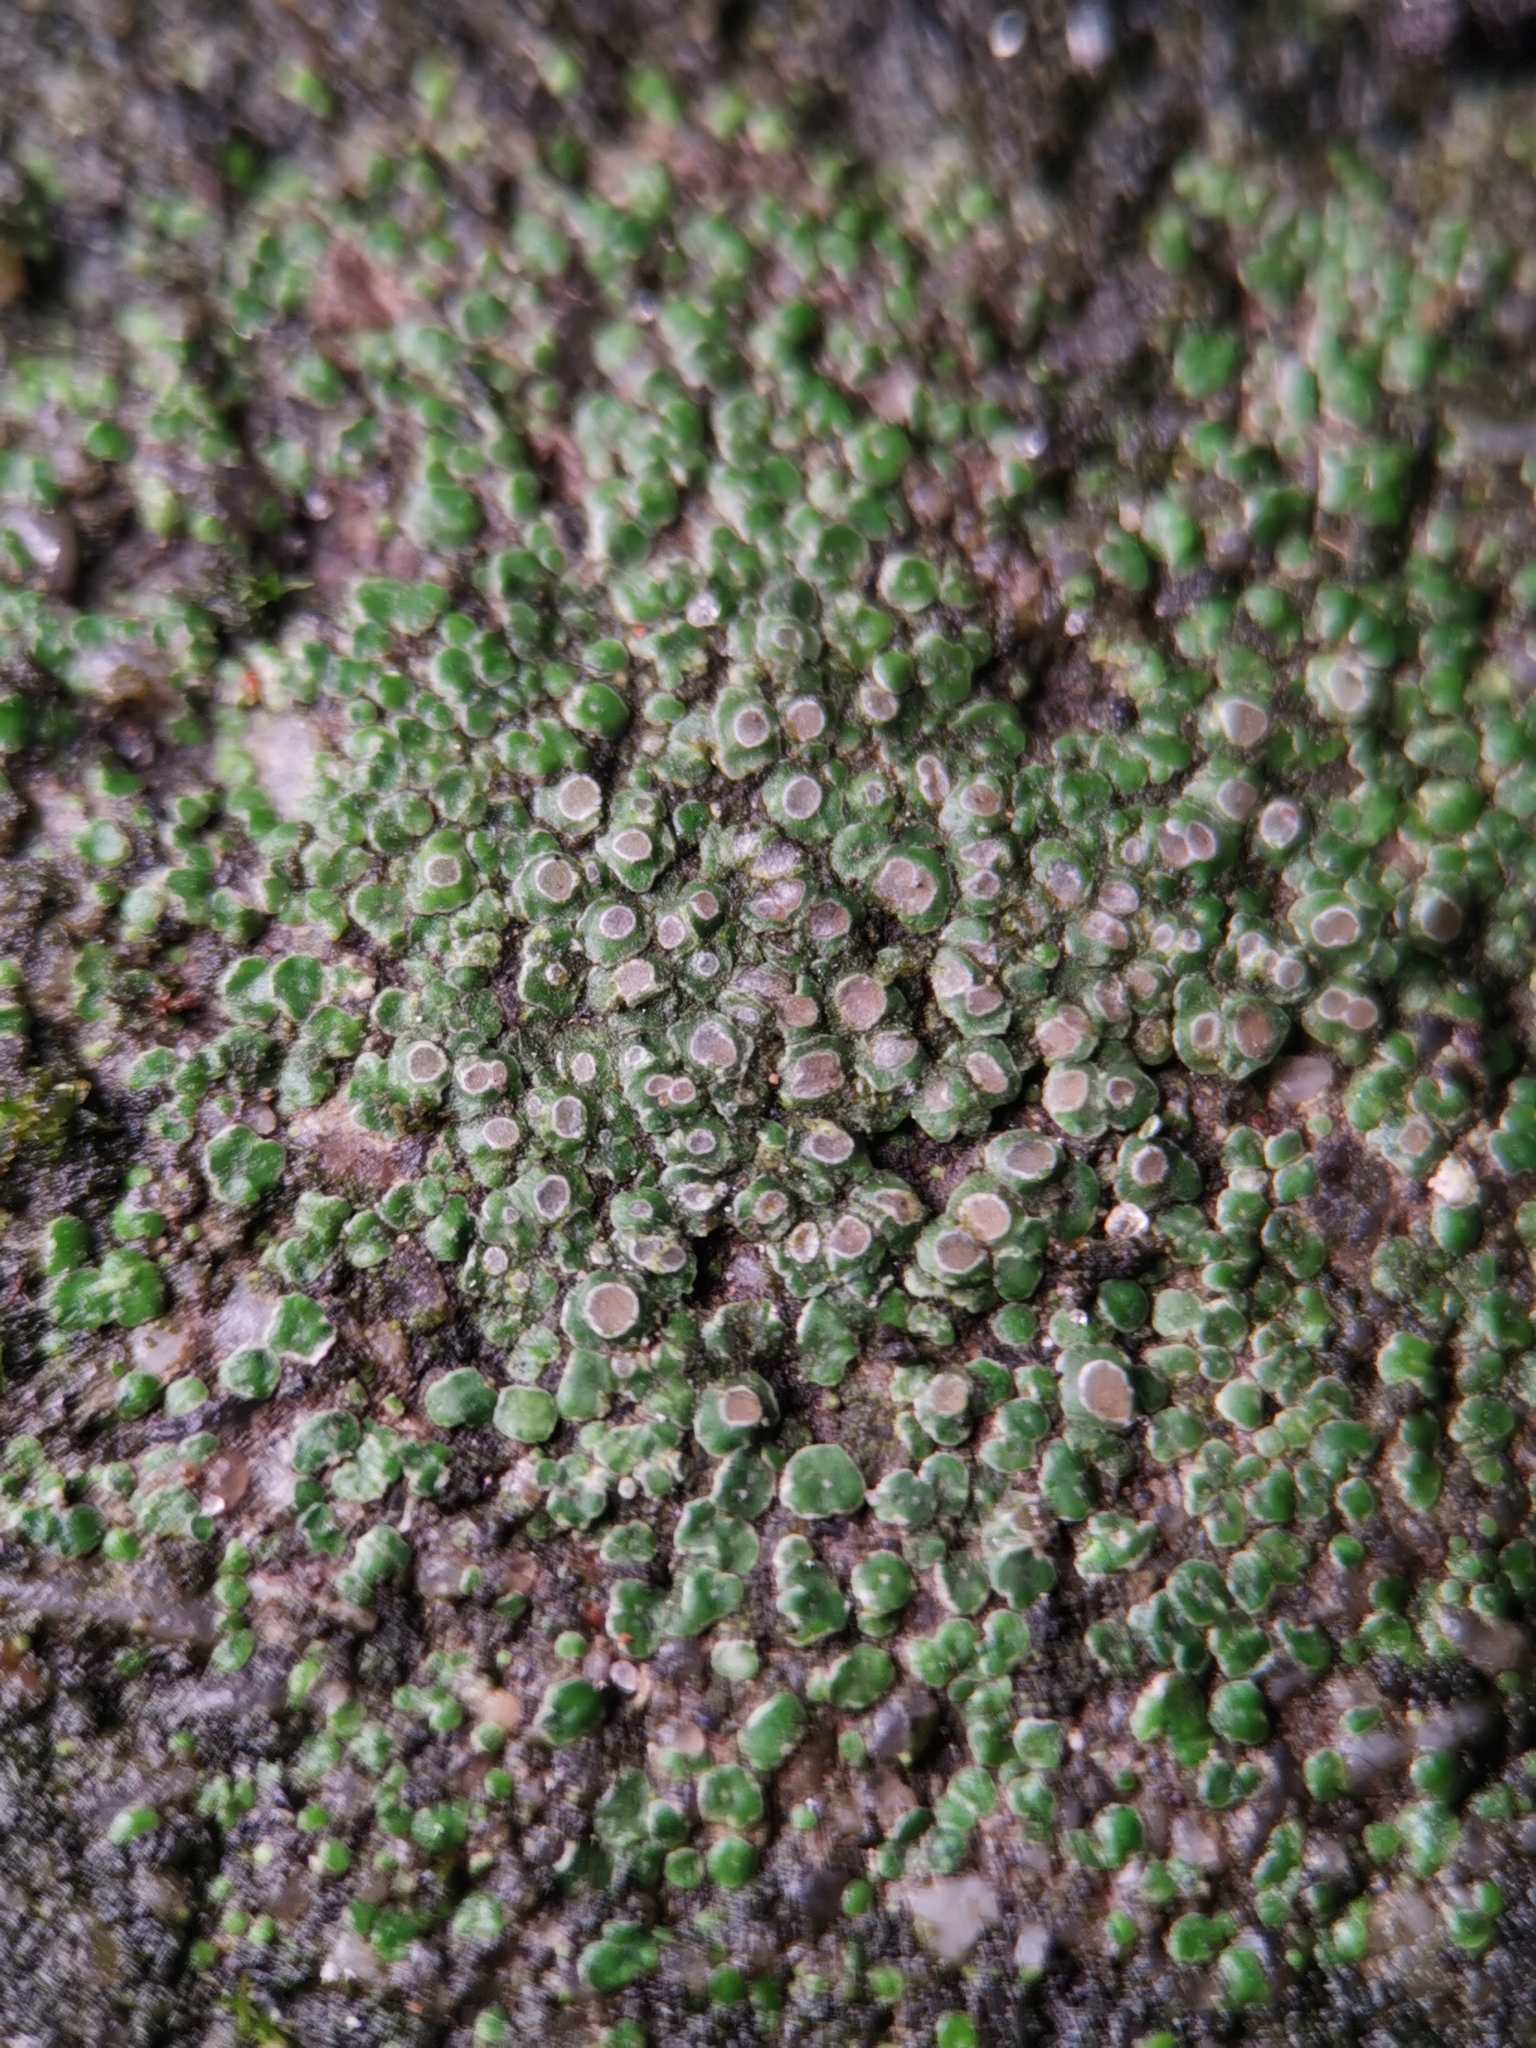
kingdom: Fungi
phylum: Ascomycota
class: Lecanoromycetes
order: Pertusariales
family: Megasporaceae
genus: Circinaria
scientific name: Circinaria contorta
